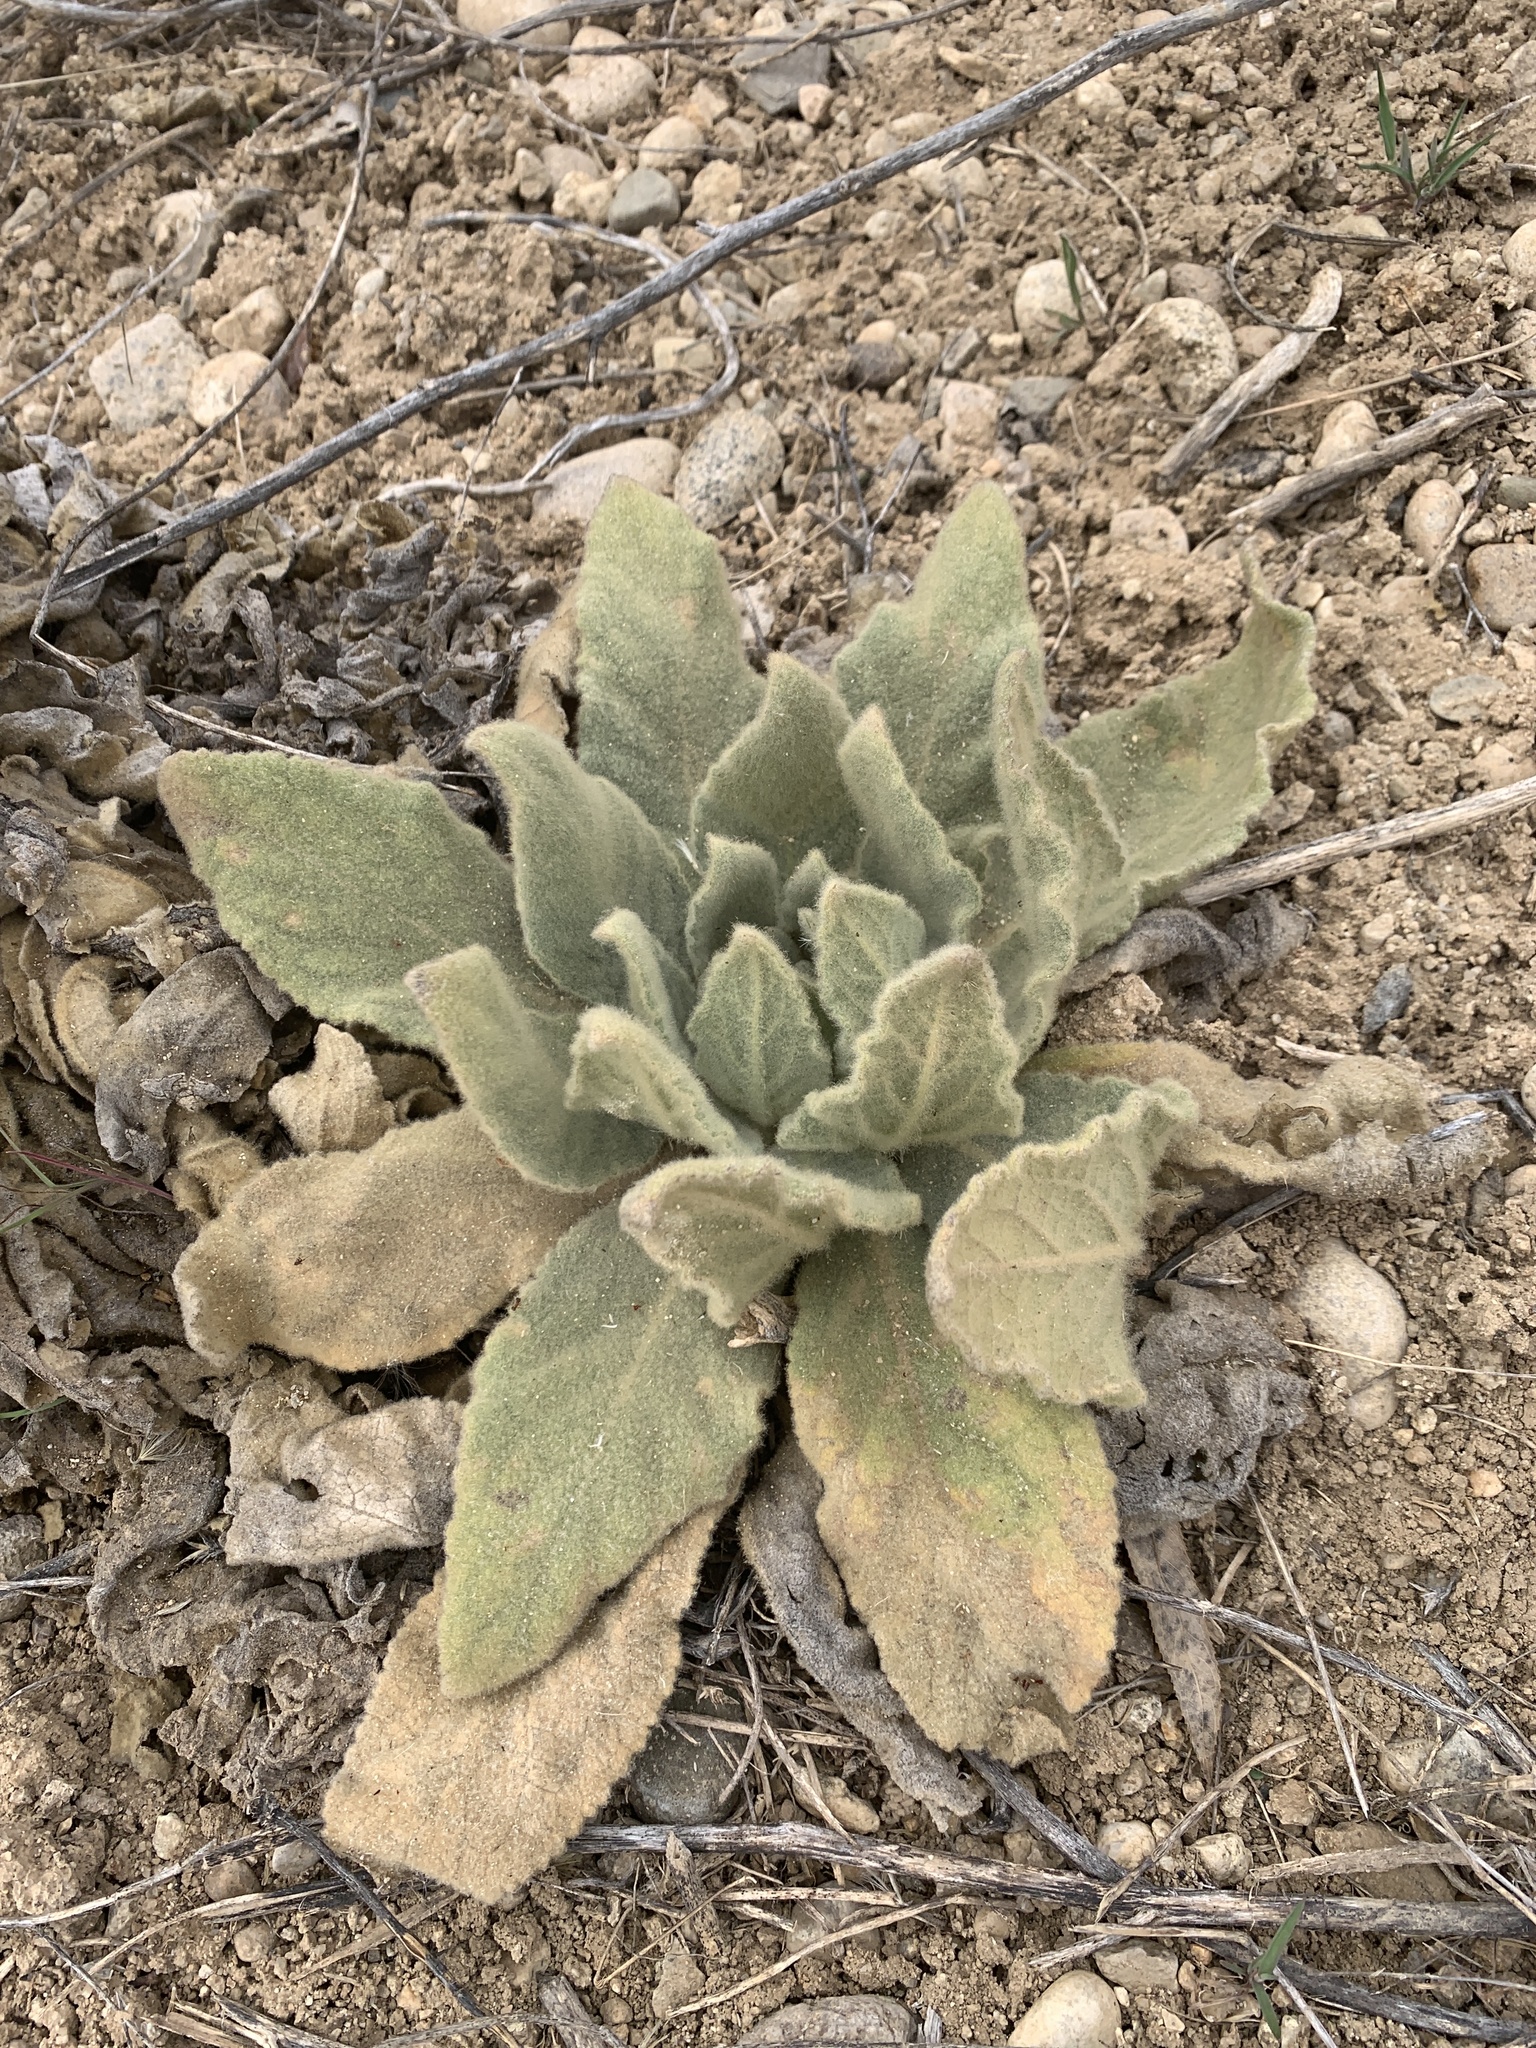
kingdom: Plantae
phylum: Tracheophyta
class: Magnoliopsida
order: Lamiales
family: Scrophulariaceae
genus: Verbascum
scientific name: Verbascum thapsus
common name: Common mullein
